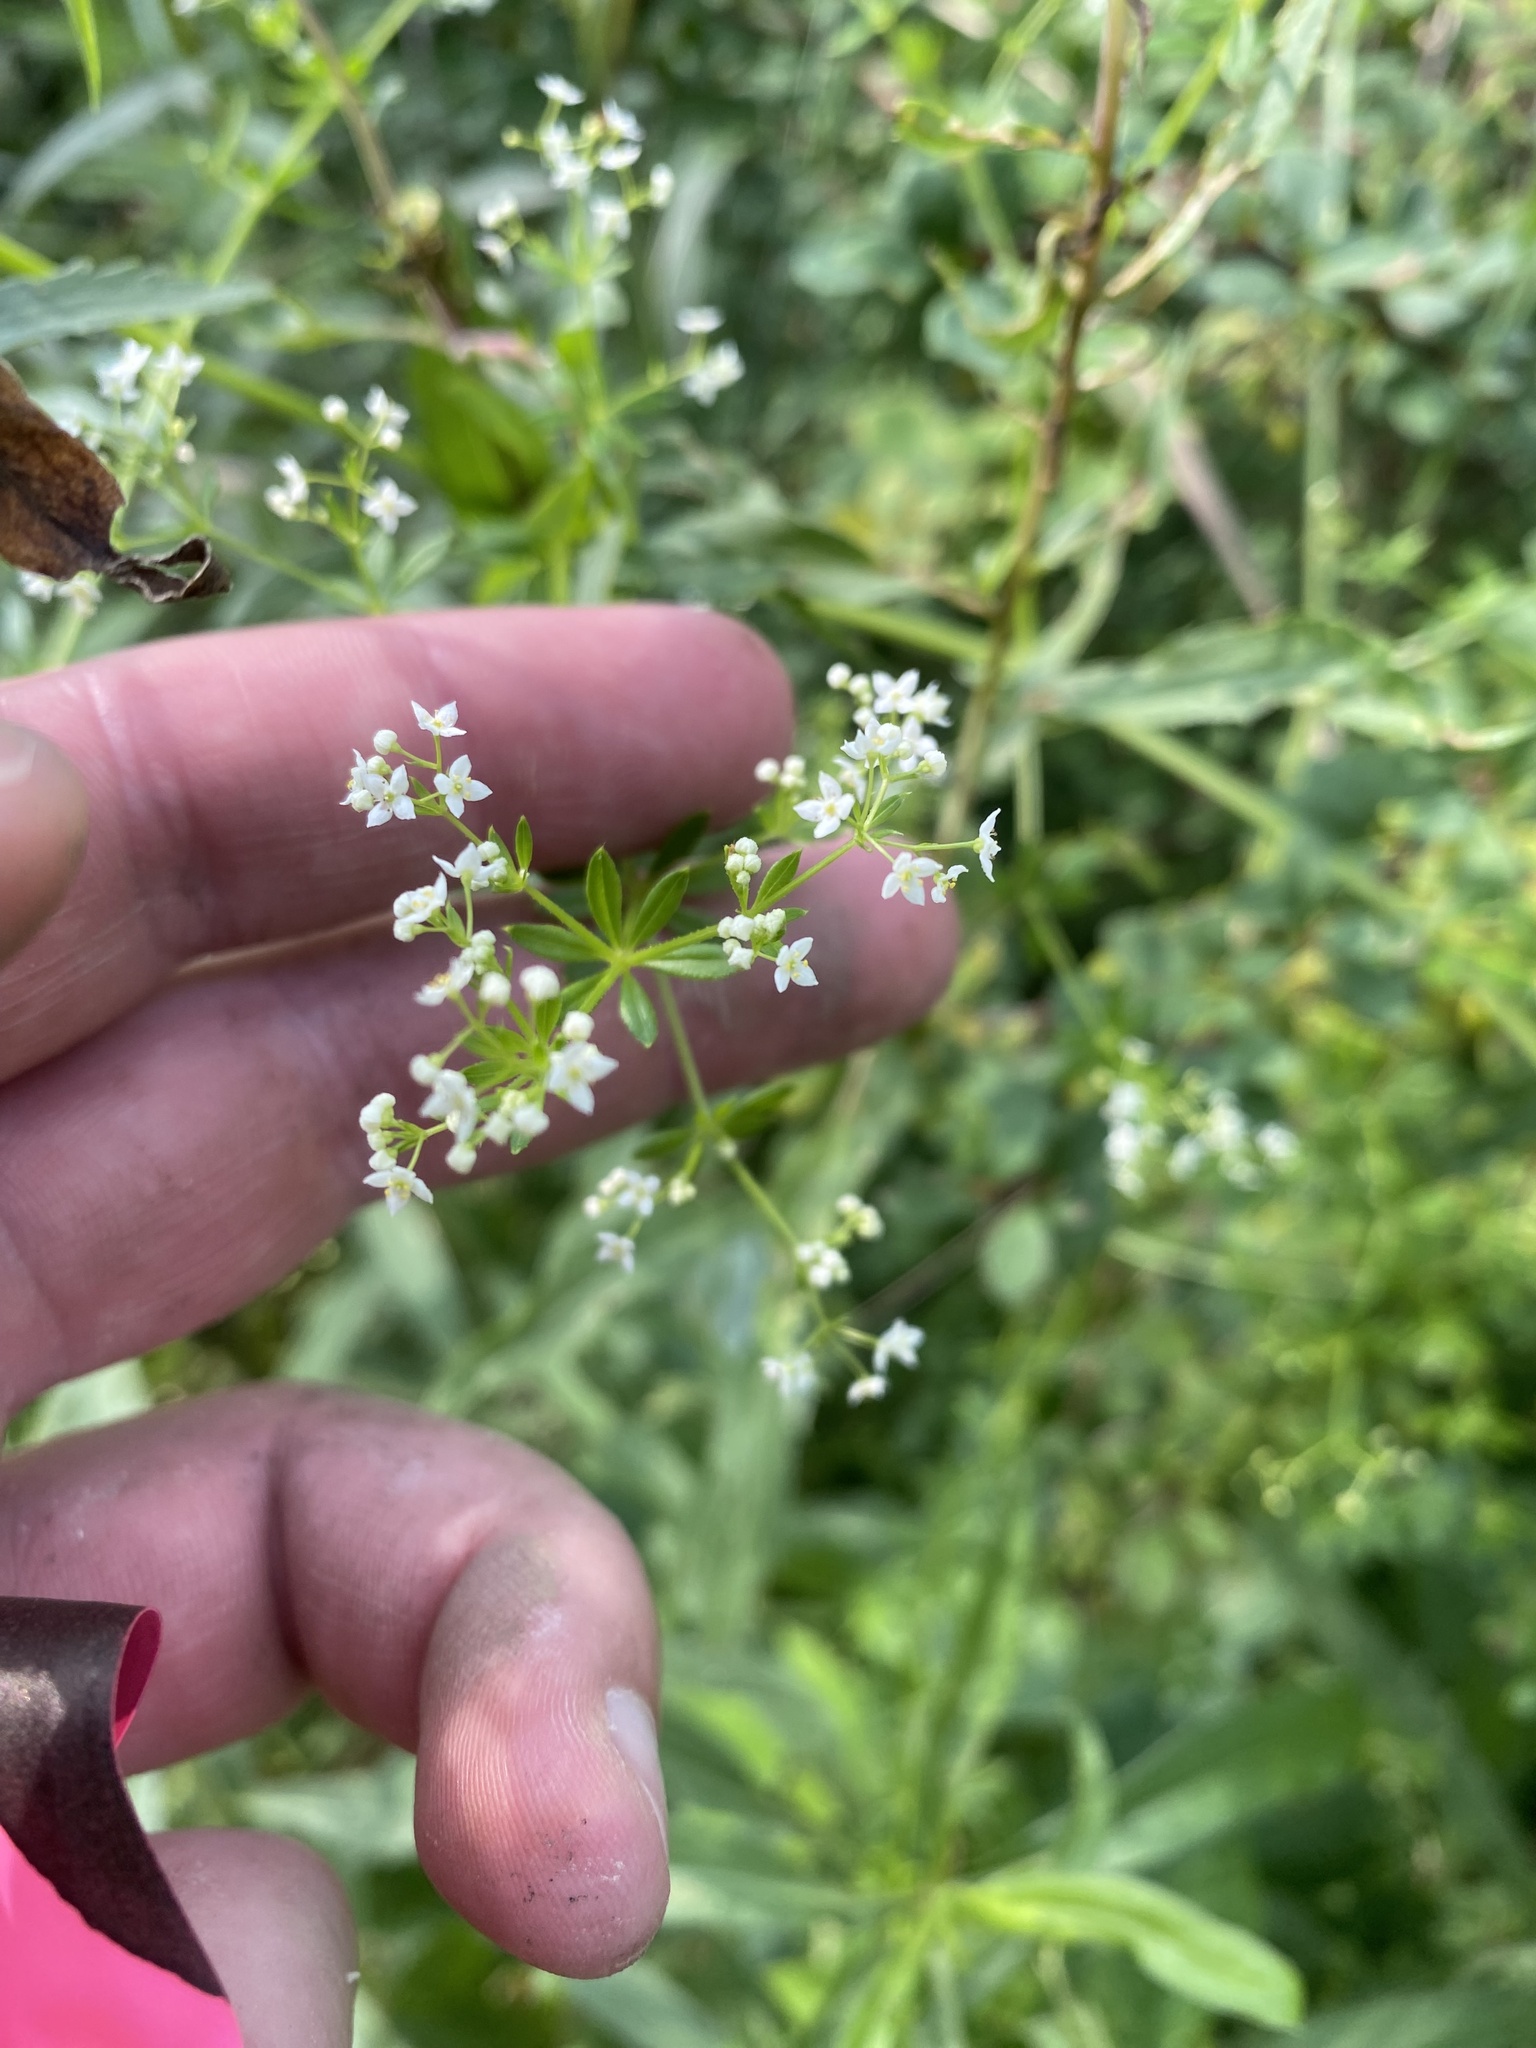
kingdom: Plantae
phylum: Tracheophyta
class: Magnoliopsida
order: Gentianales
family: Rubiaceae
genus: Galium
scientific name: Galium asprellum
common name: Rough bedstraw
